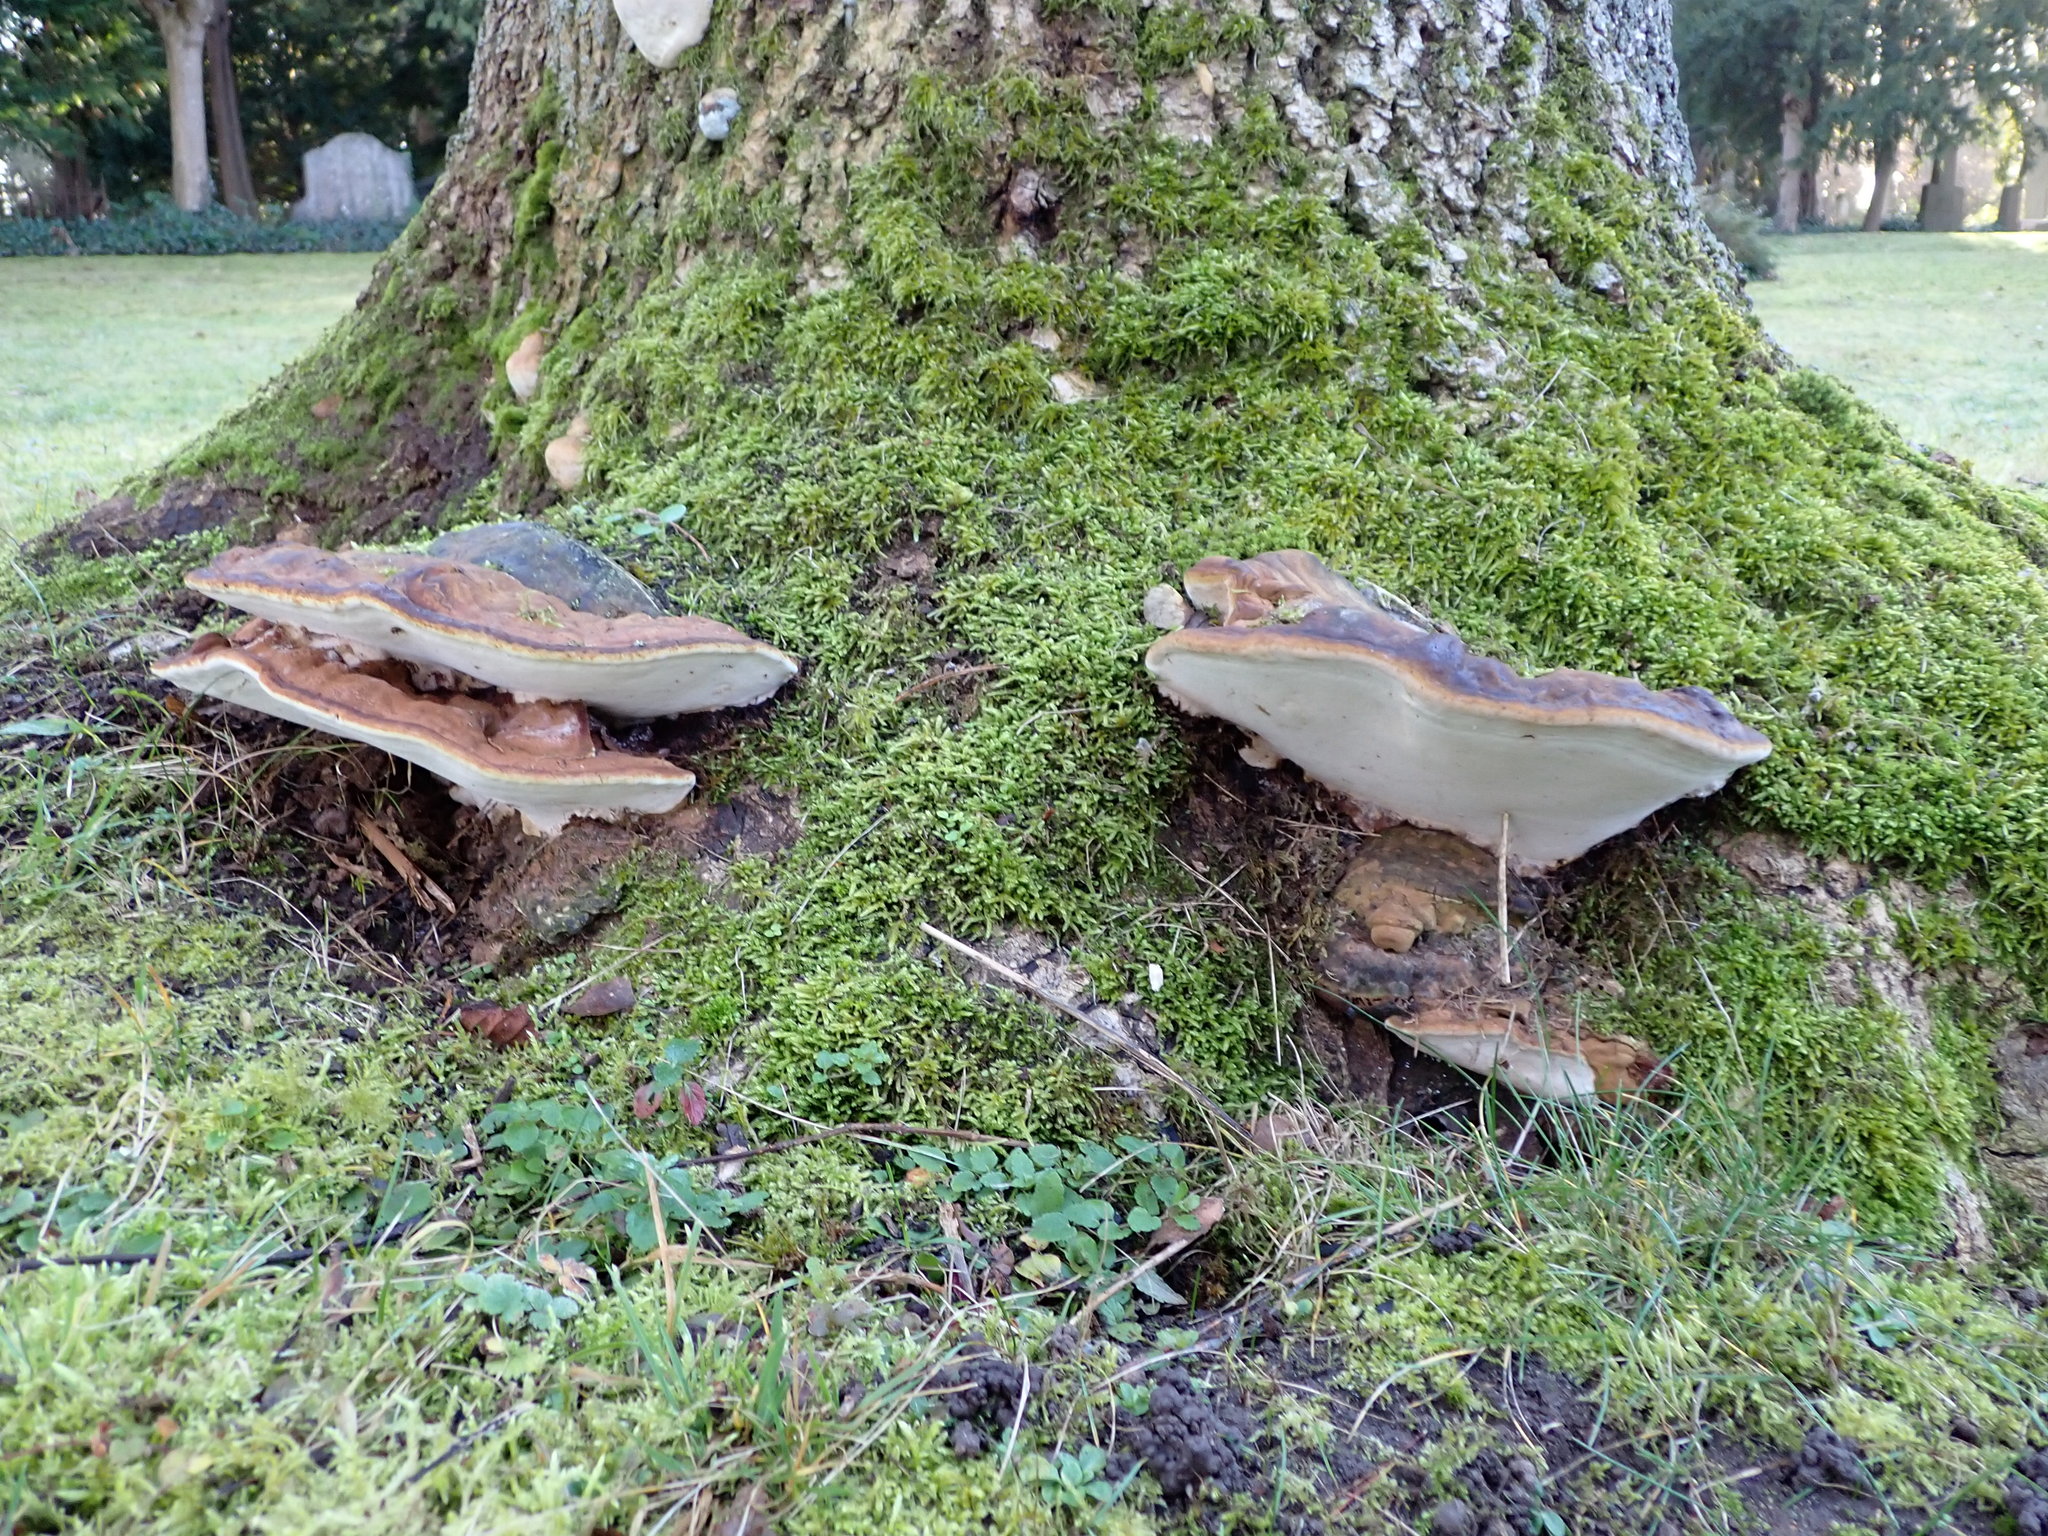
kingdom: Fungi
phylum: Basidiomycota
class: Agaricomycetes
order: Polyporales
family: Polyporaceae
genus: Ganoderma
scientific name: Ganoderma applanatum
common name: Artist's bracket
